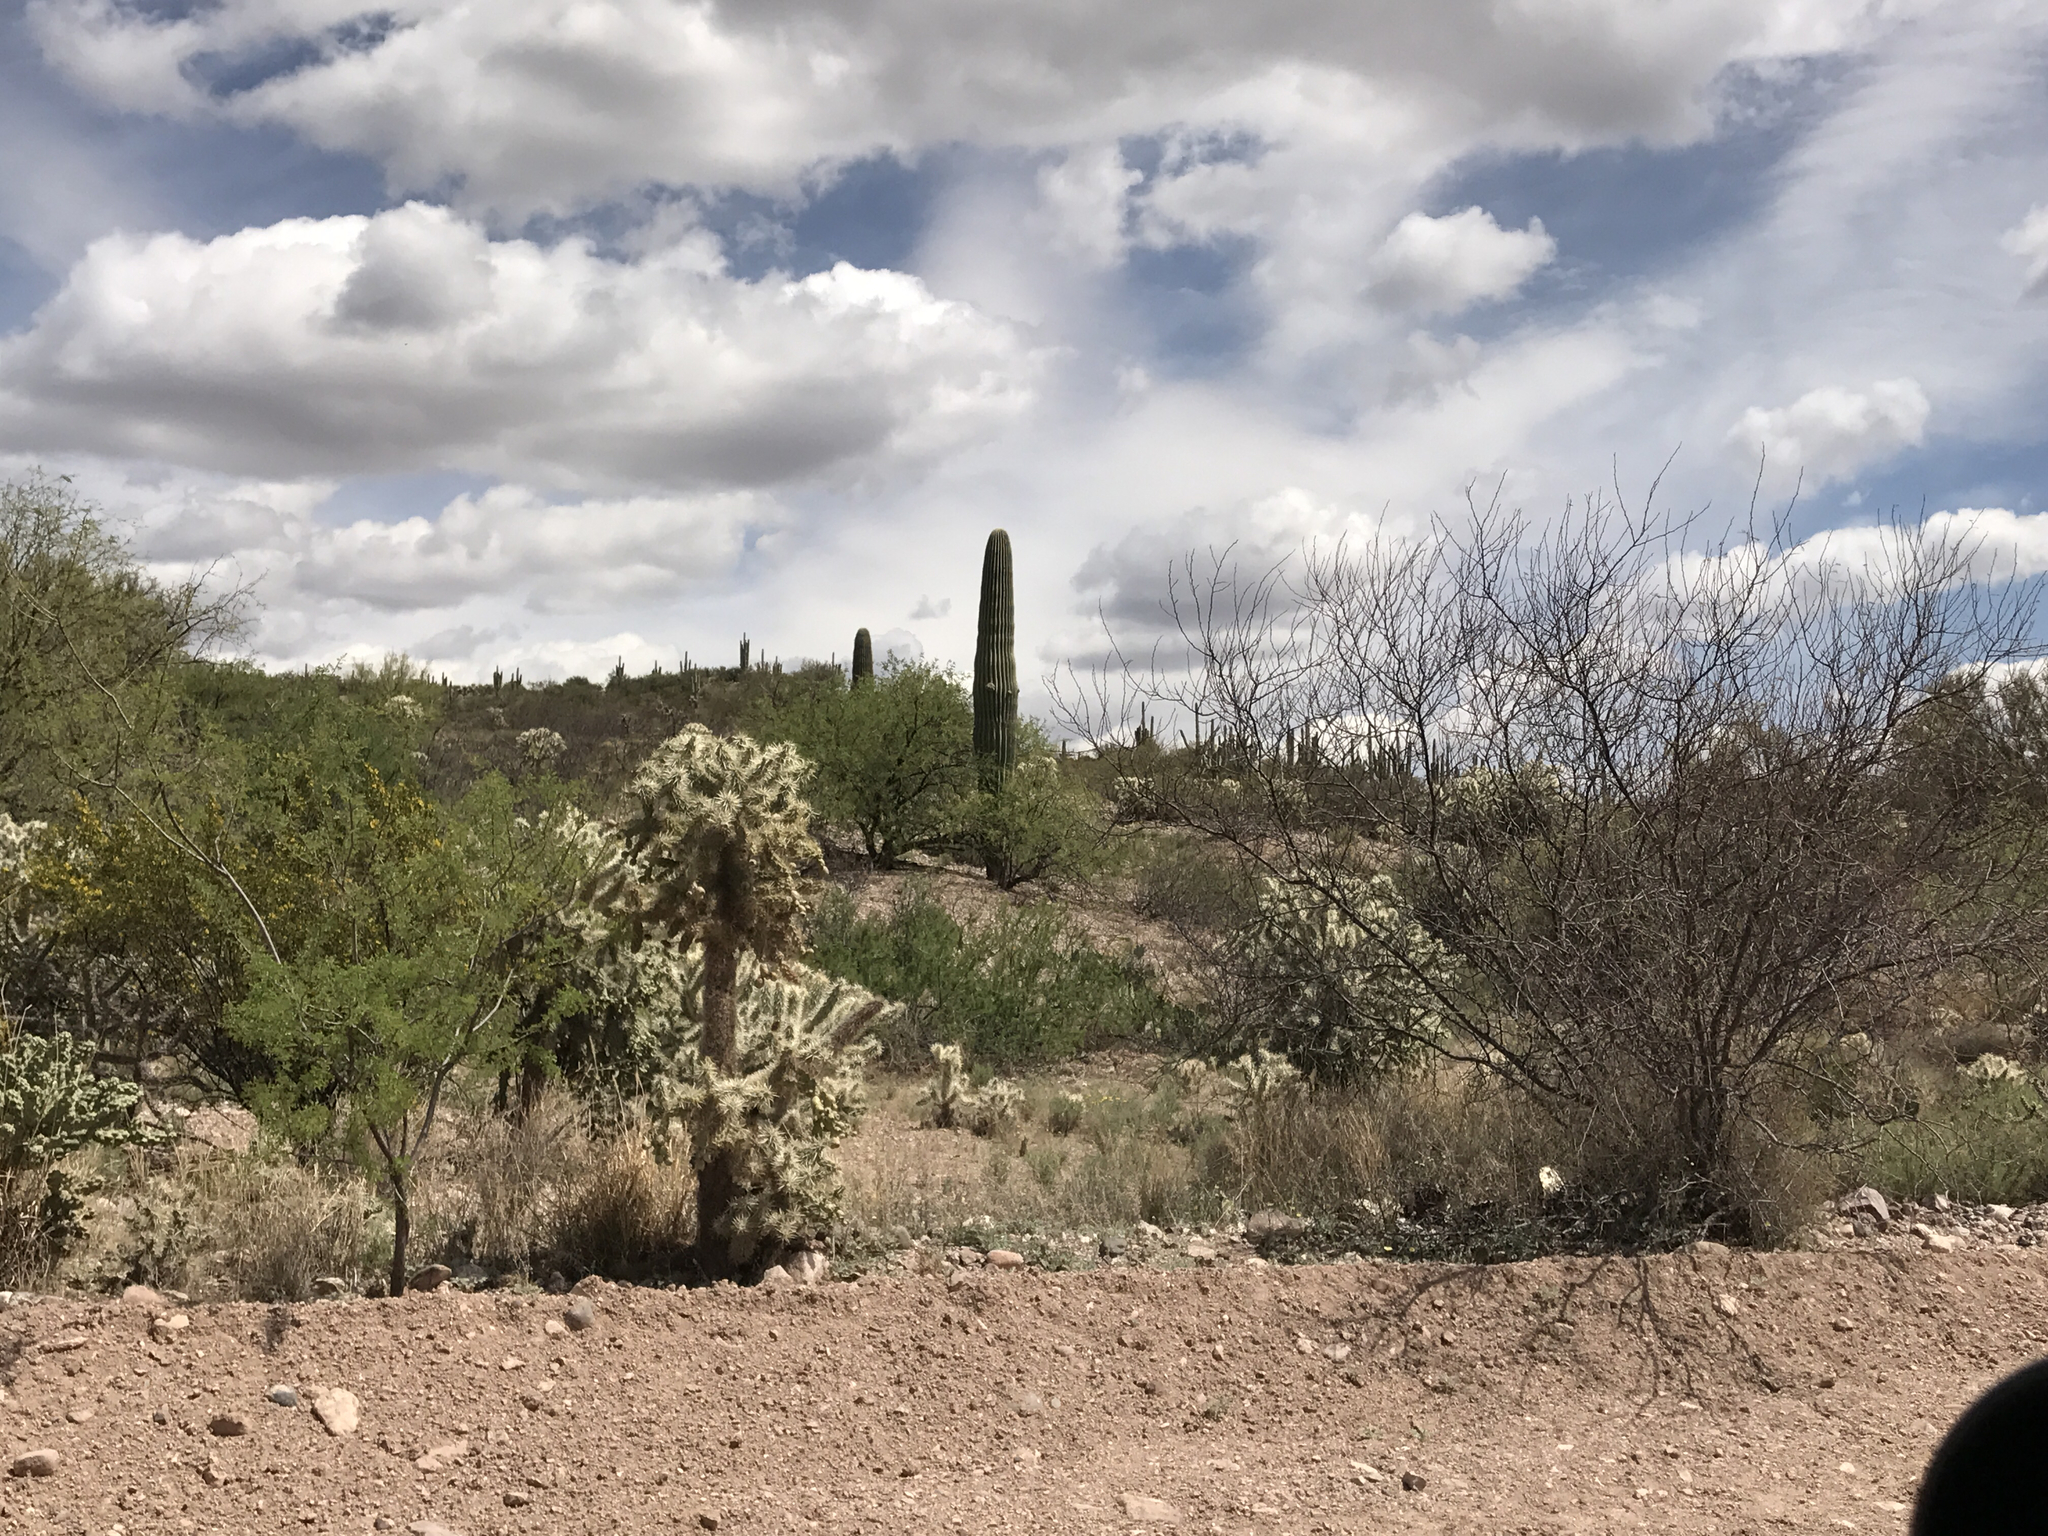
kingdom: Plantae
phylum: Tracheophyta
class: Magnoliopsida
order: Caryophyllales
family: Cactaceae
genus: Cylindropuntia
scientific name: Cylindropuntia fulgida
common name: Jumping cholla
